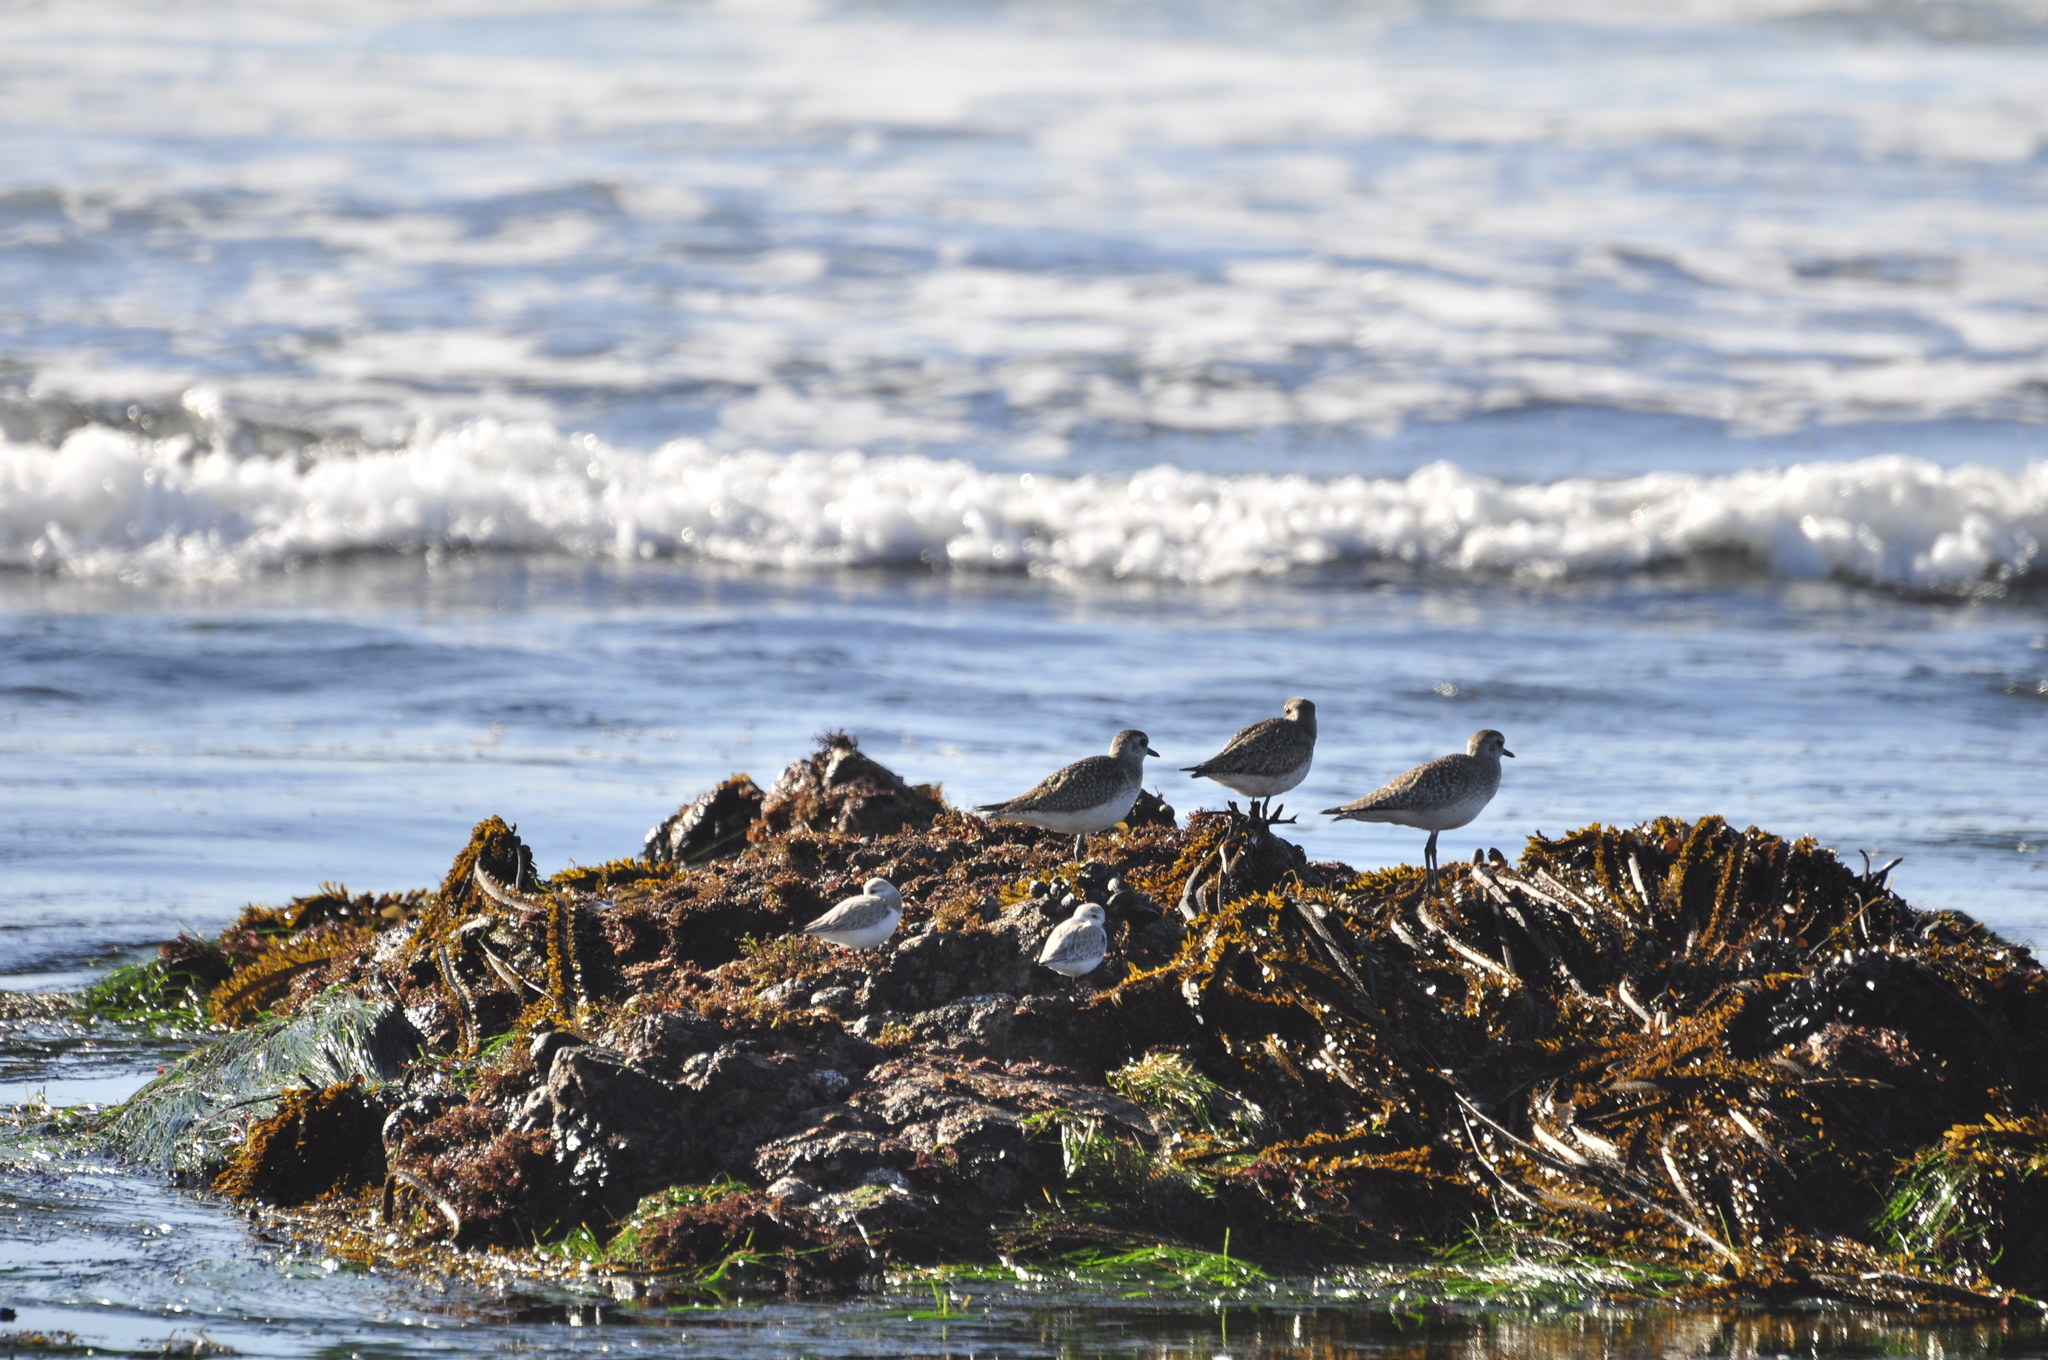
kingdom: Animalia
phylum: Chordata
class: Aves
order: Charadriiformes
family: Charadriidae
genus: Pluvialis
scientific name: Pluvialis squatarola
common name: Grey plover
